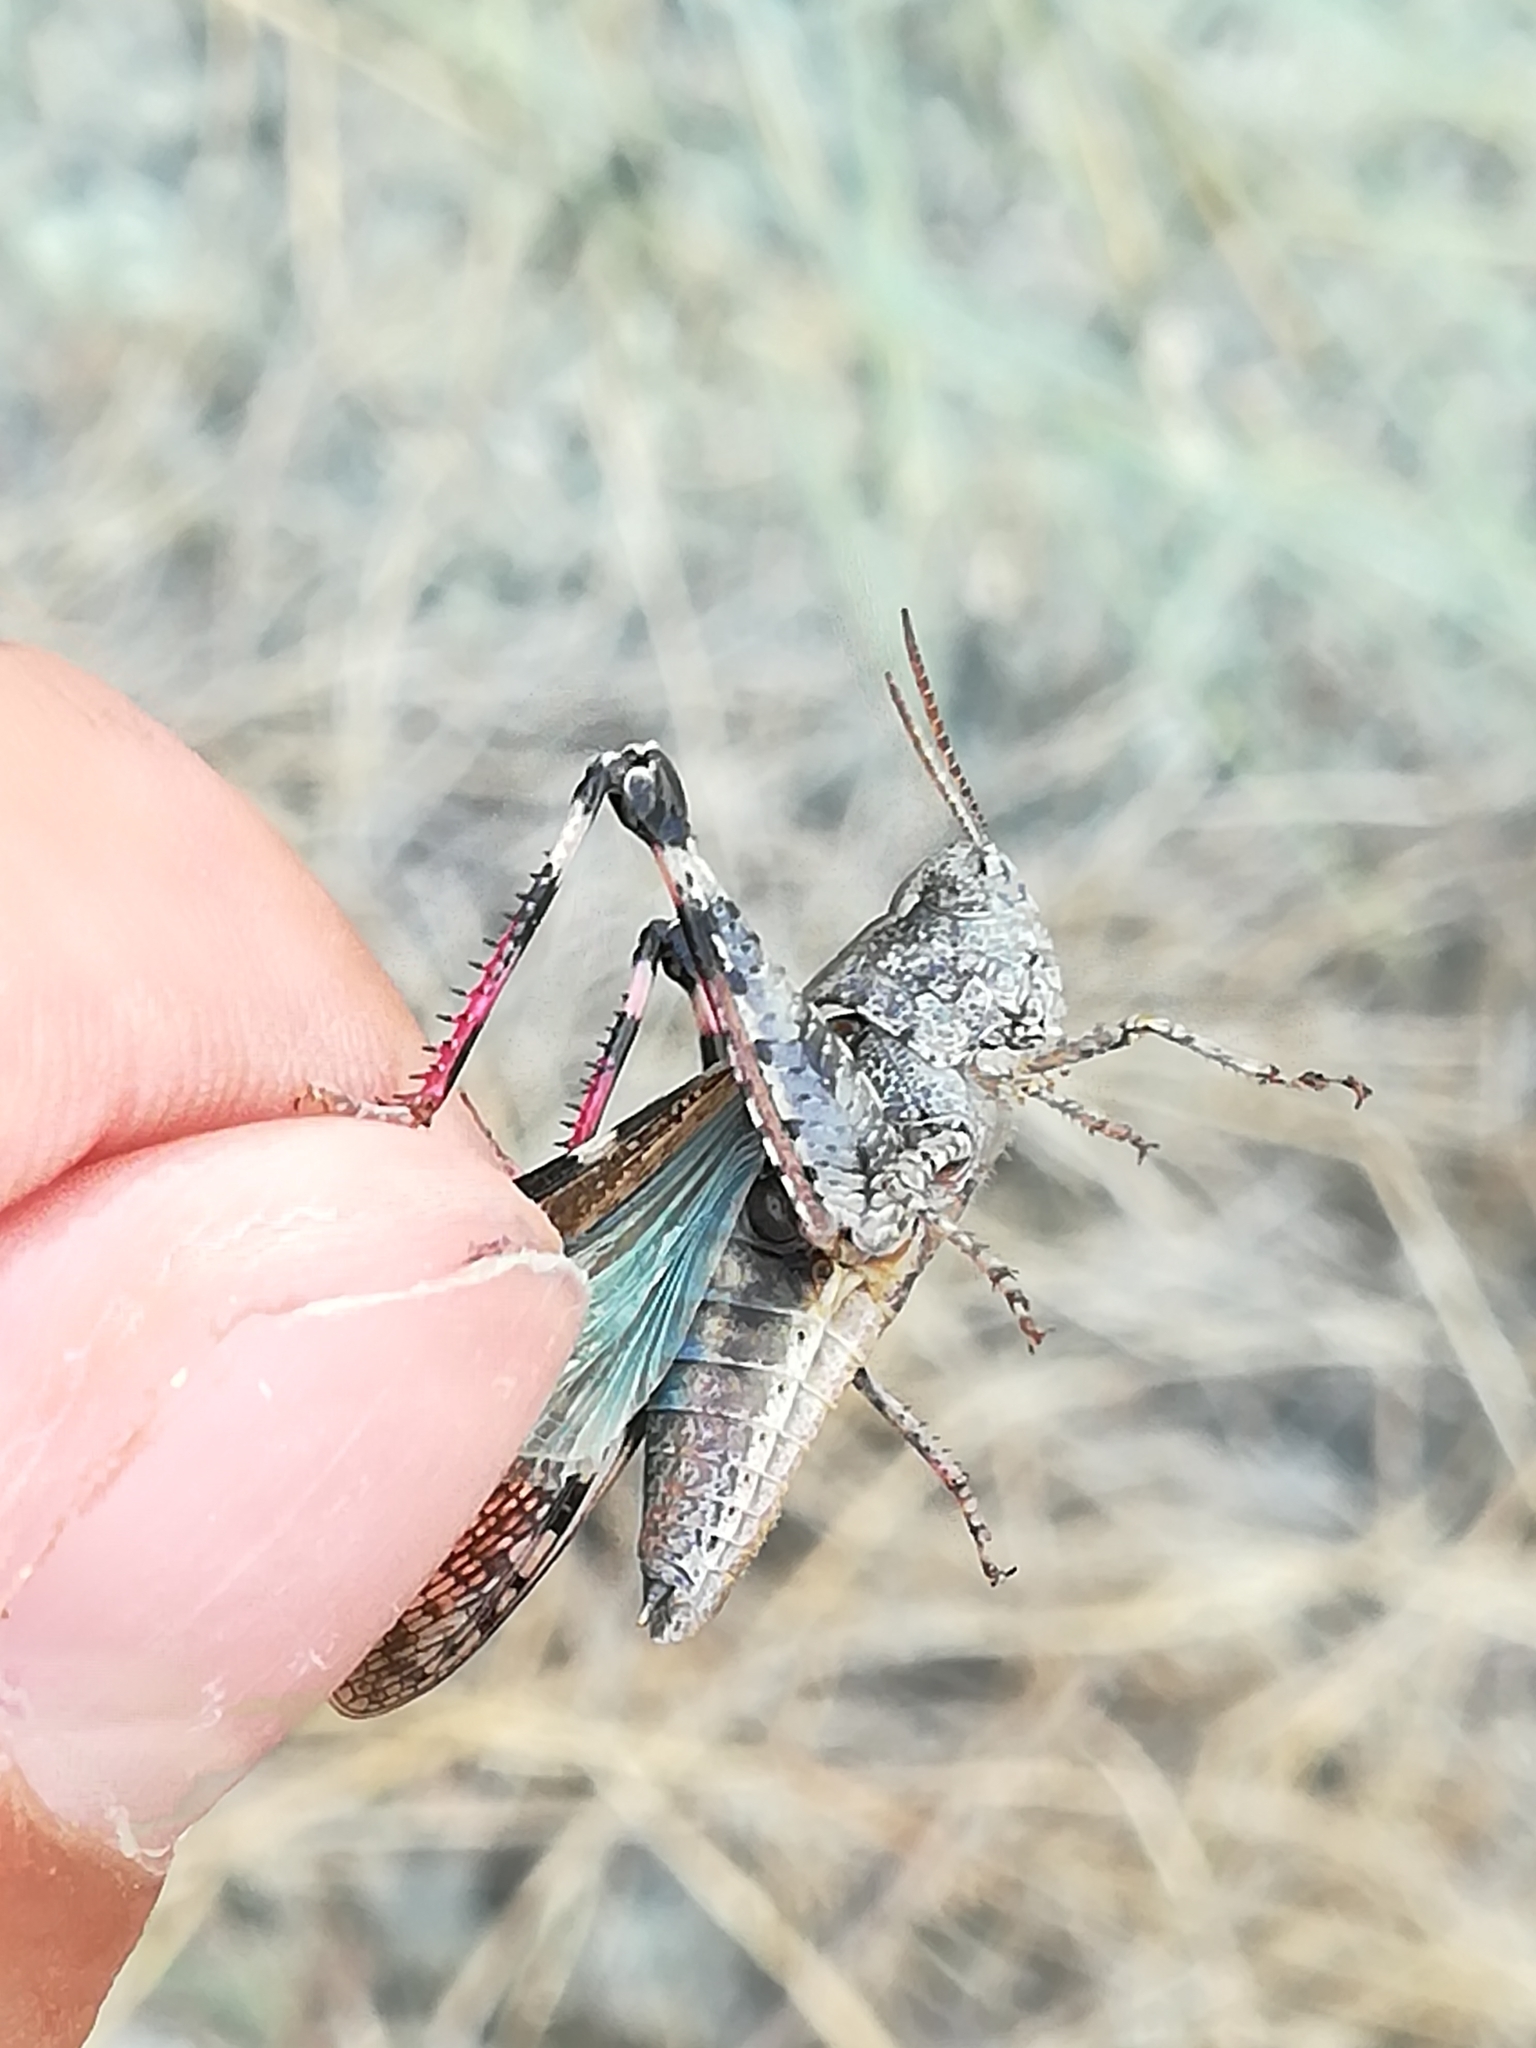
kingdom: Animalia
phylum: Arthropoda
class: Insecta
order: Orthoptera
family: Acrididae
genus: Aiolopus
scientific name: Aiolopus strepens
